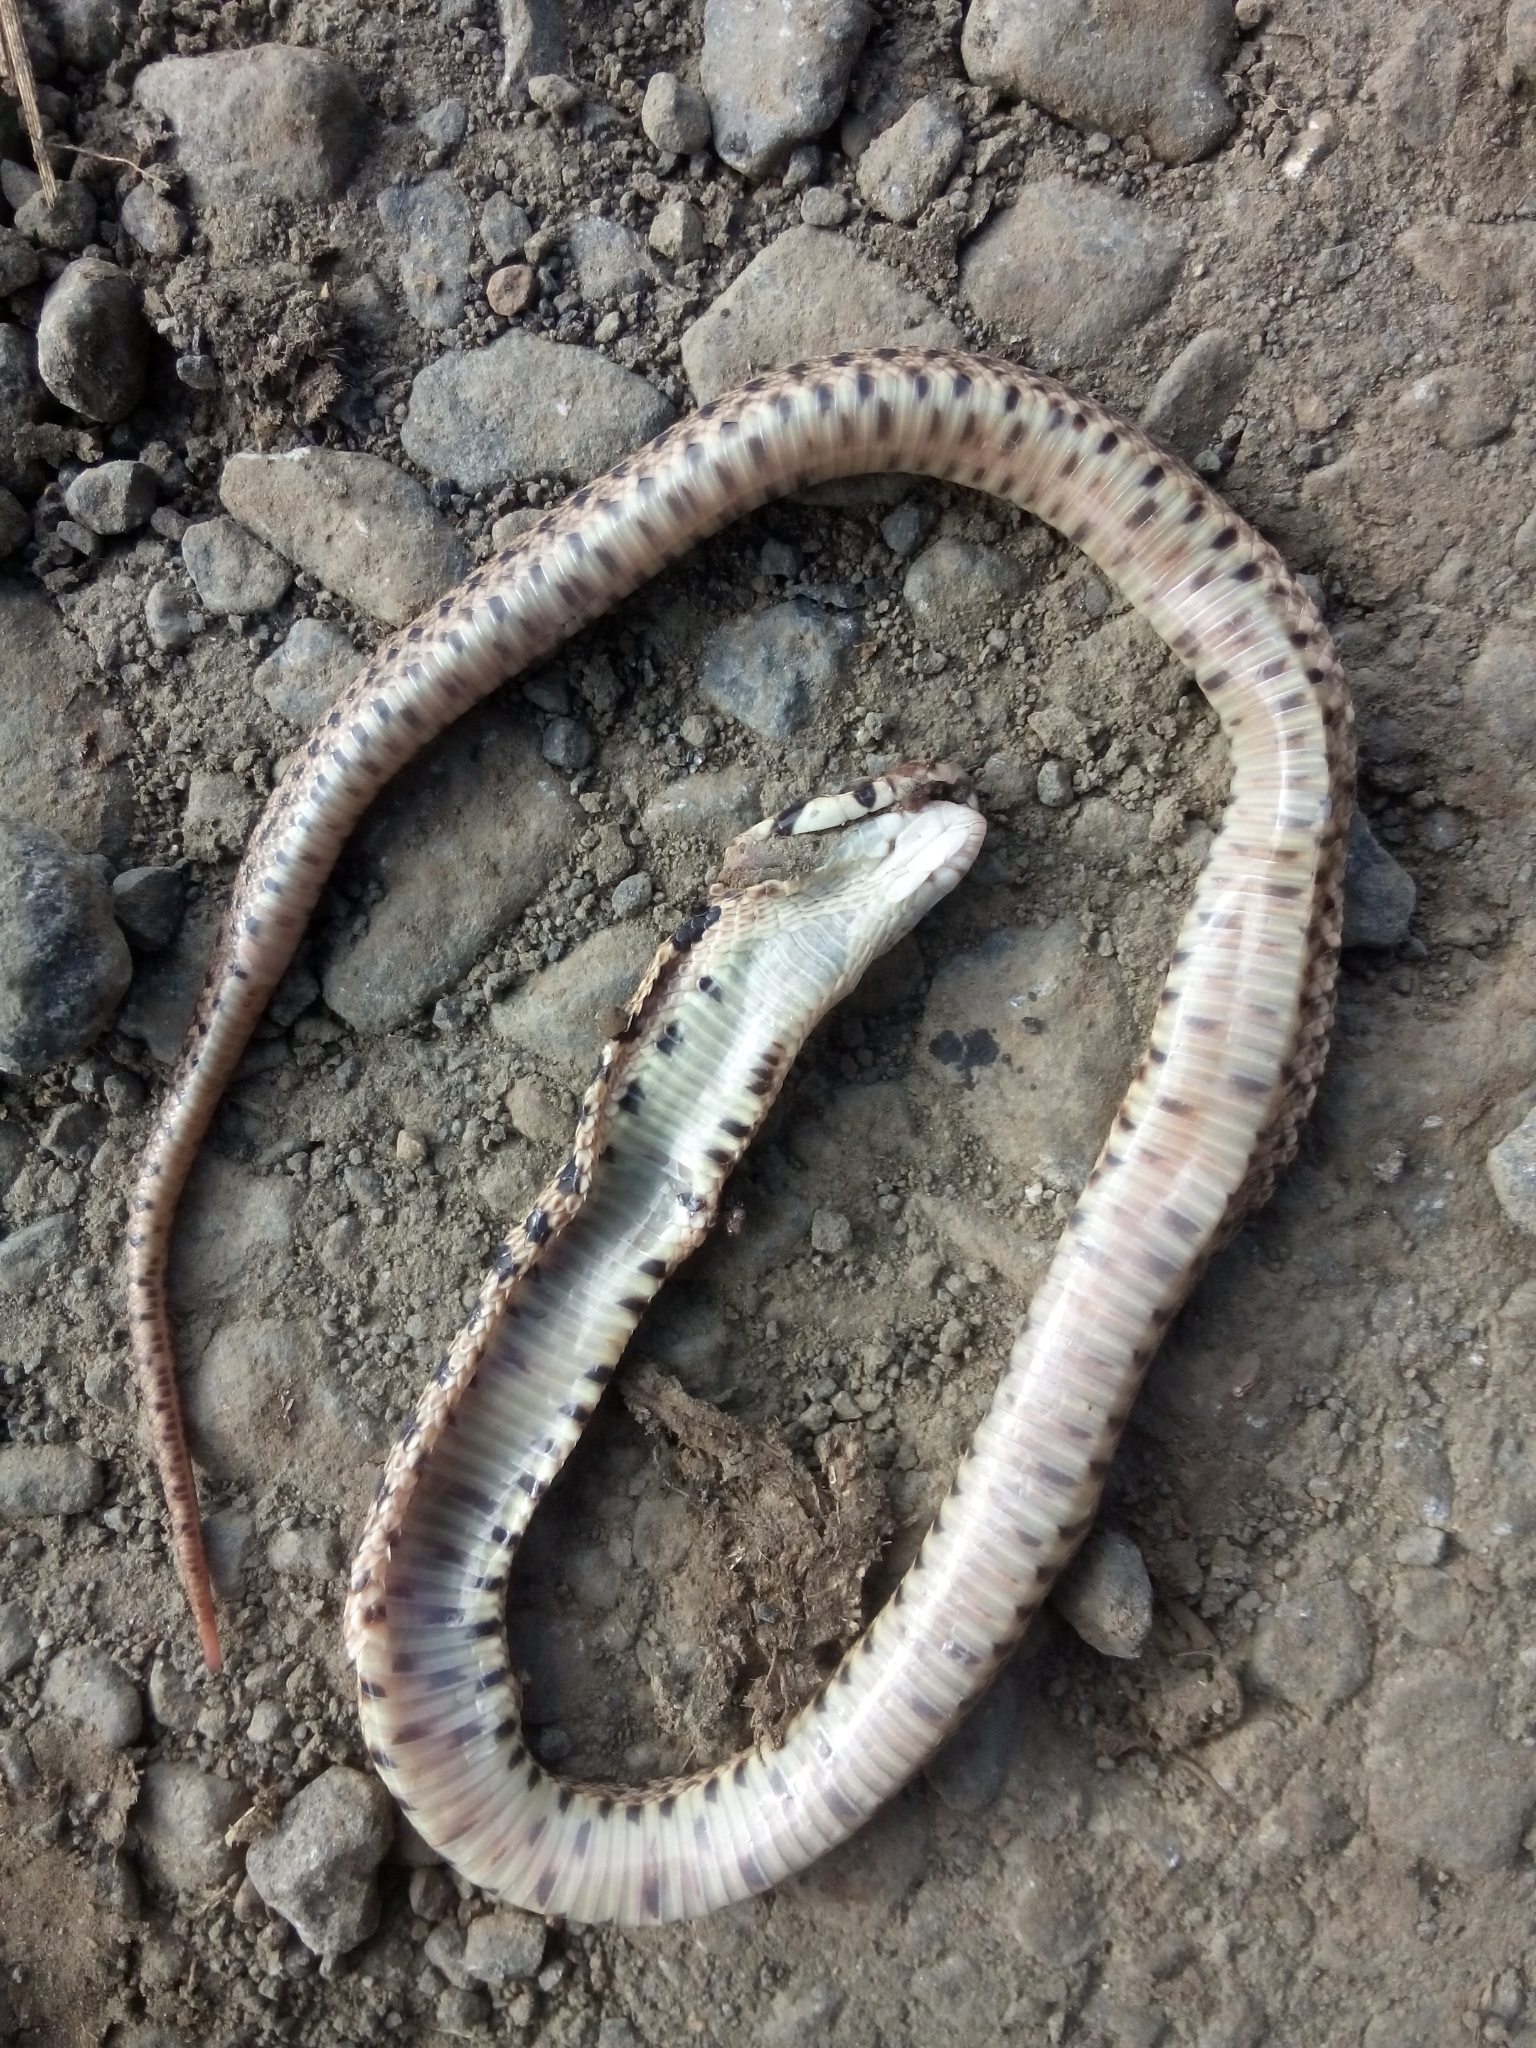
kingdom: Animalia
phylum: Chordata
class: Squamata
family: Colubridae
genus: Pituophis
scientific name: Pituophis catenifer
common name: Gopher snake
